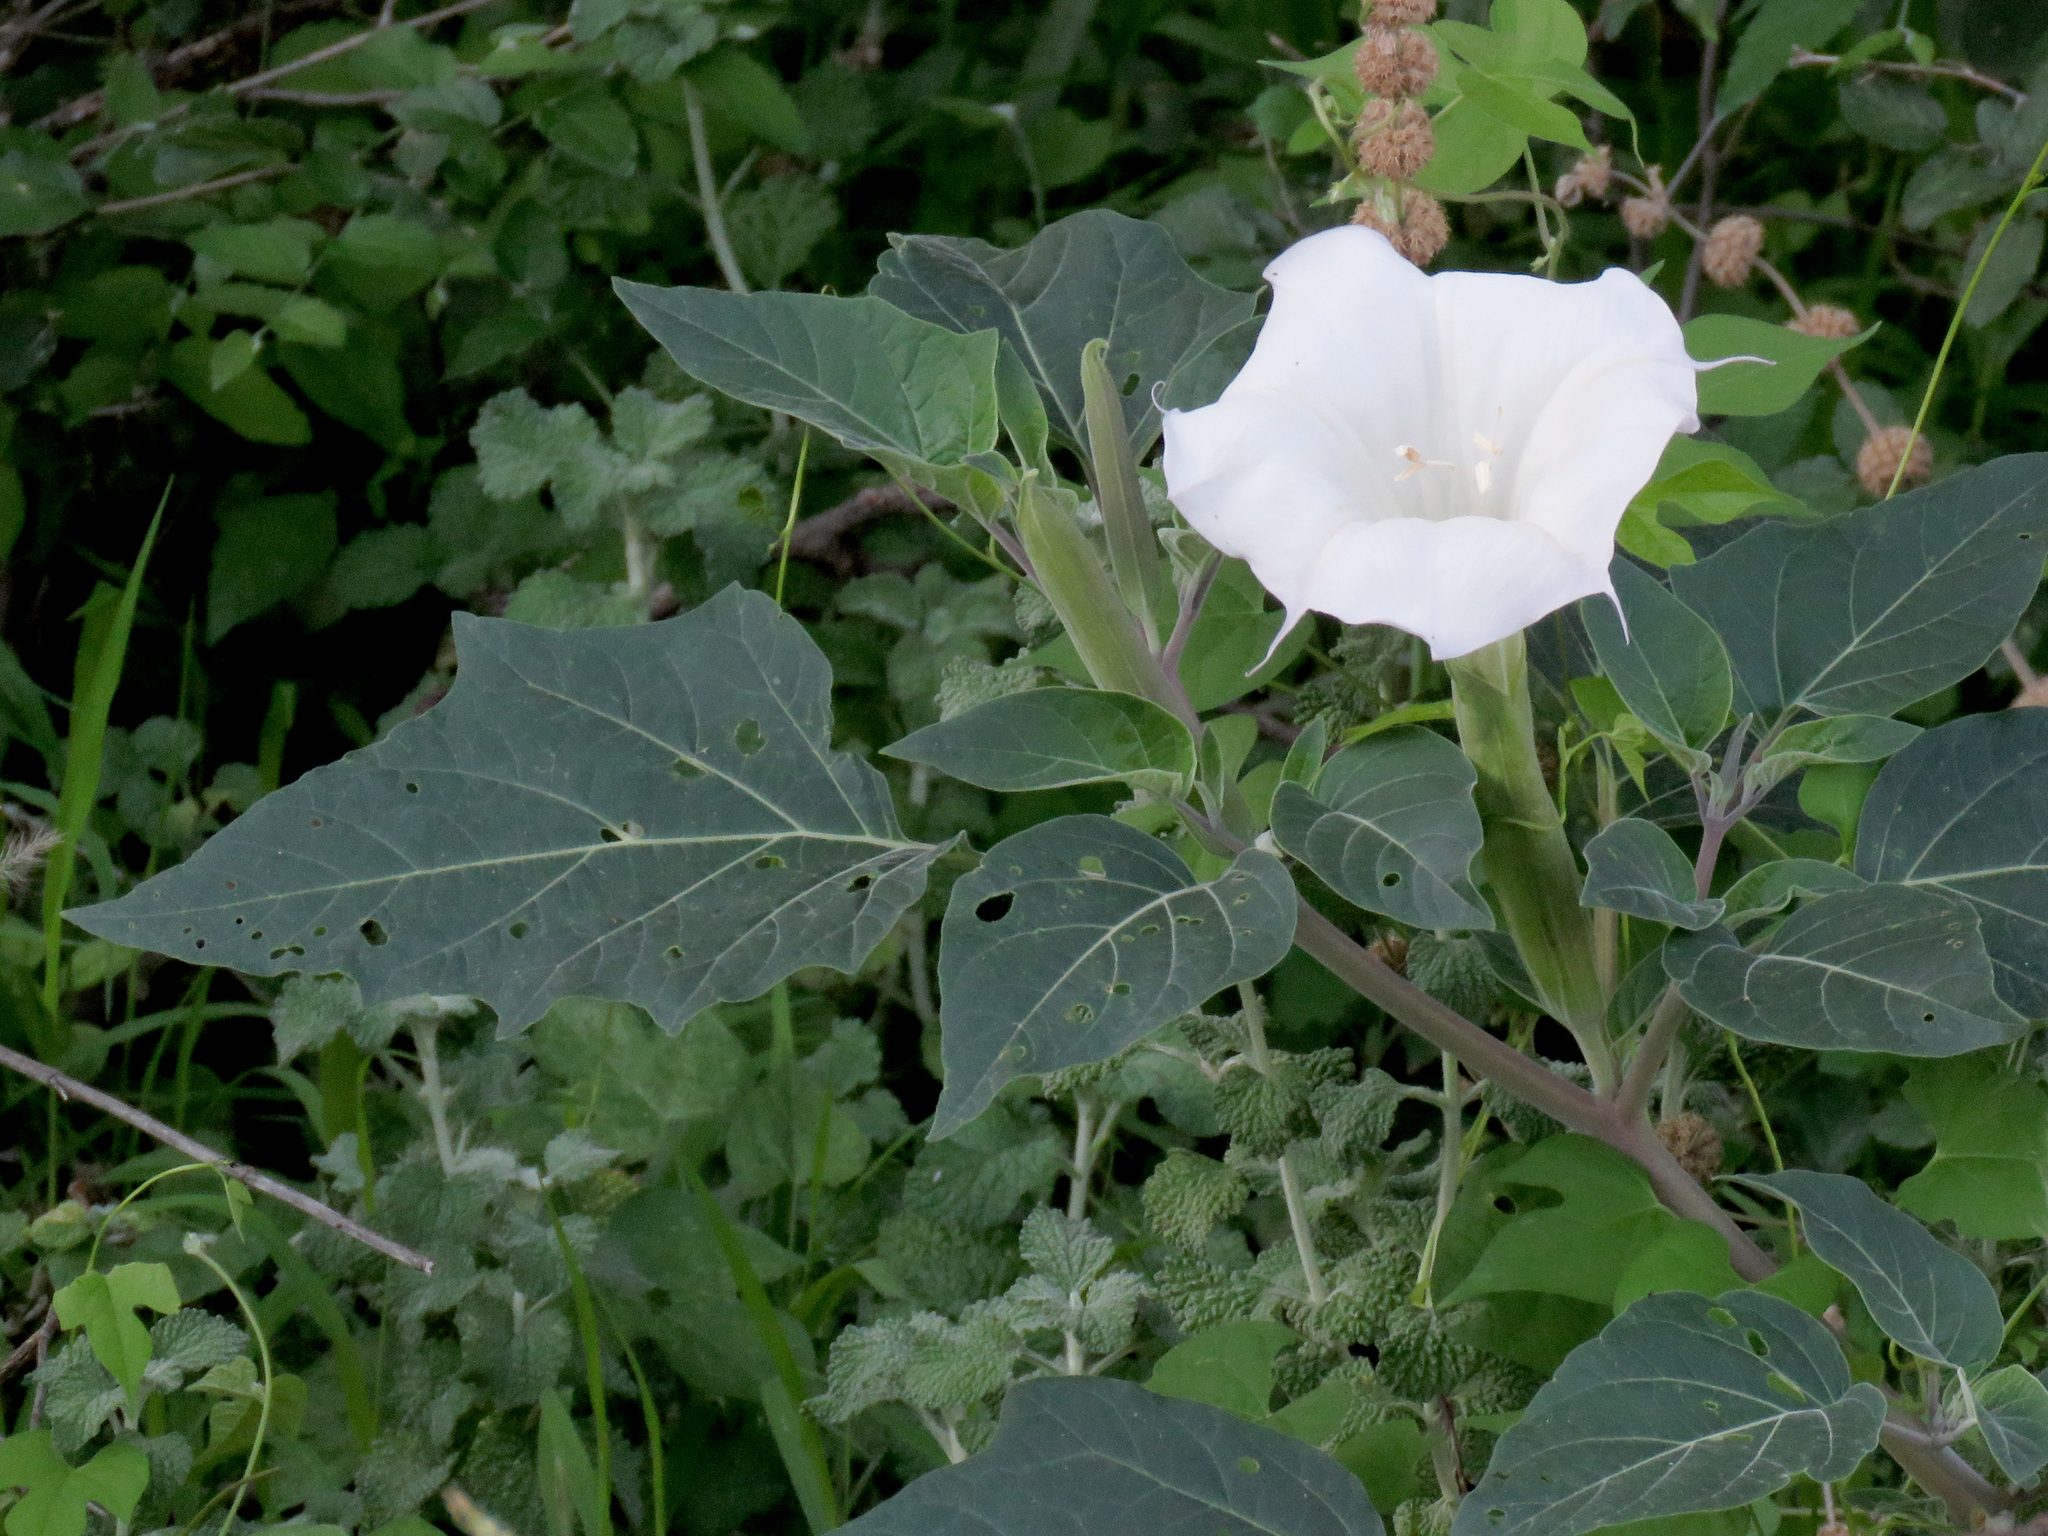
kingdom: Plantae
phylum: Tracheophyta
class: Magnoliopsida
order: Solanales
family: Solanaceae
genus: Datura
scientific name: Datura wrightii
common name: Sacred thorn-apple
